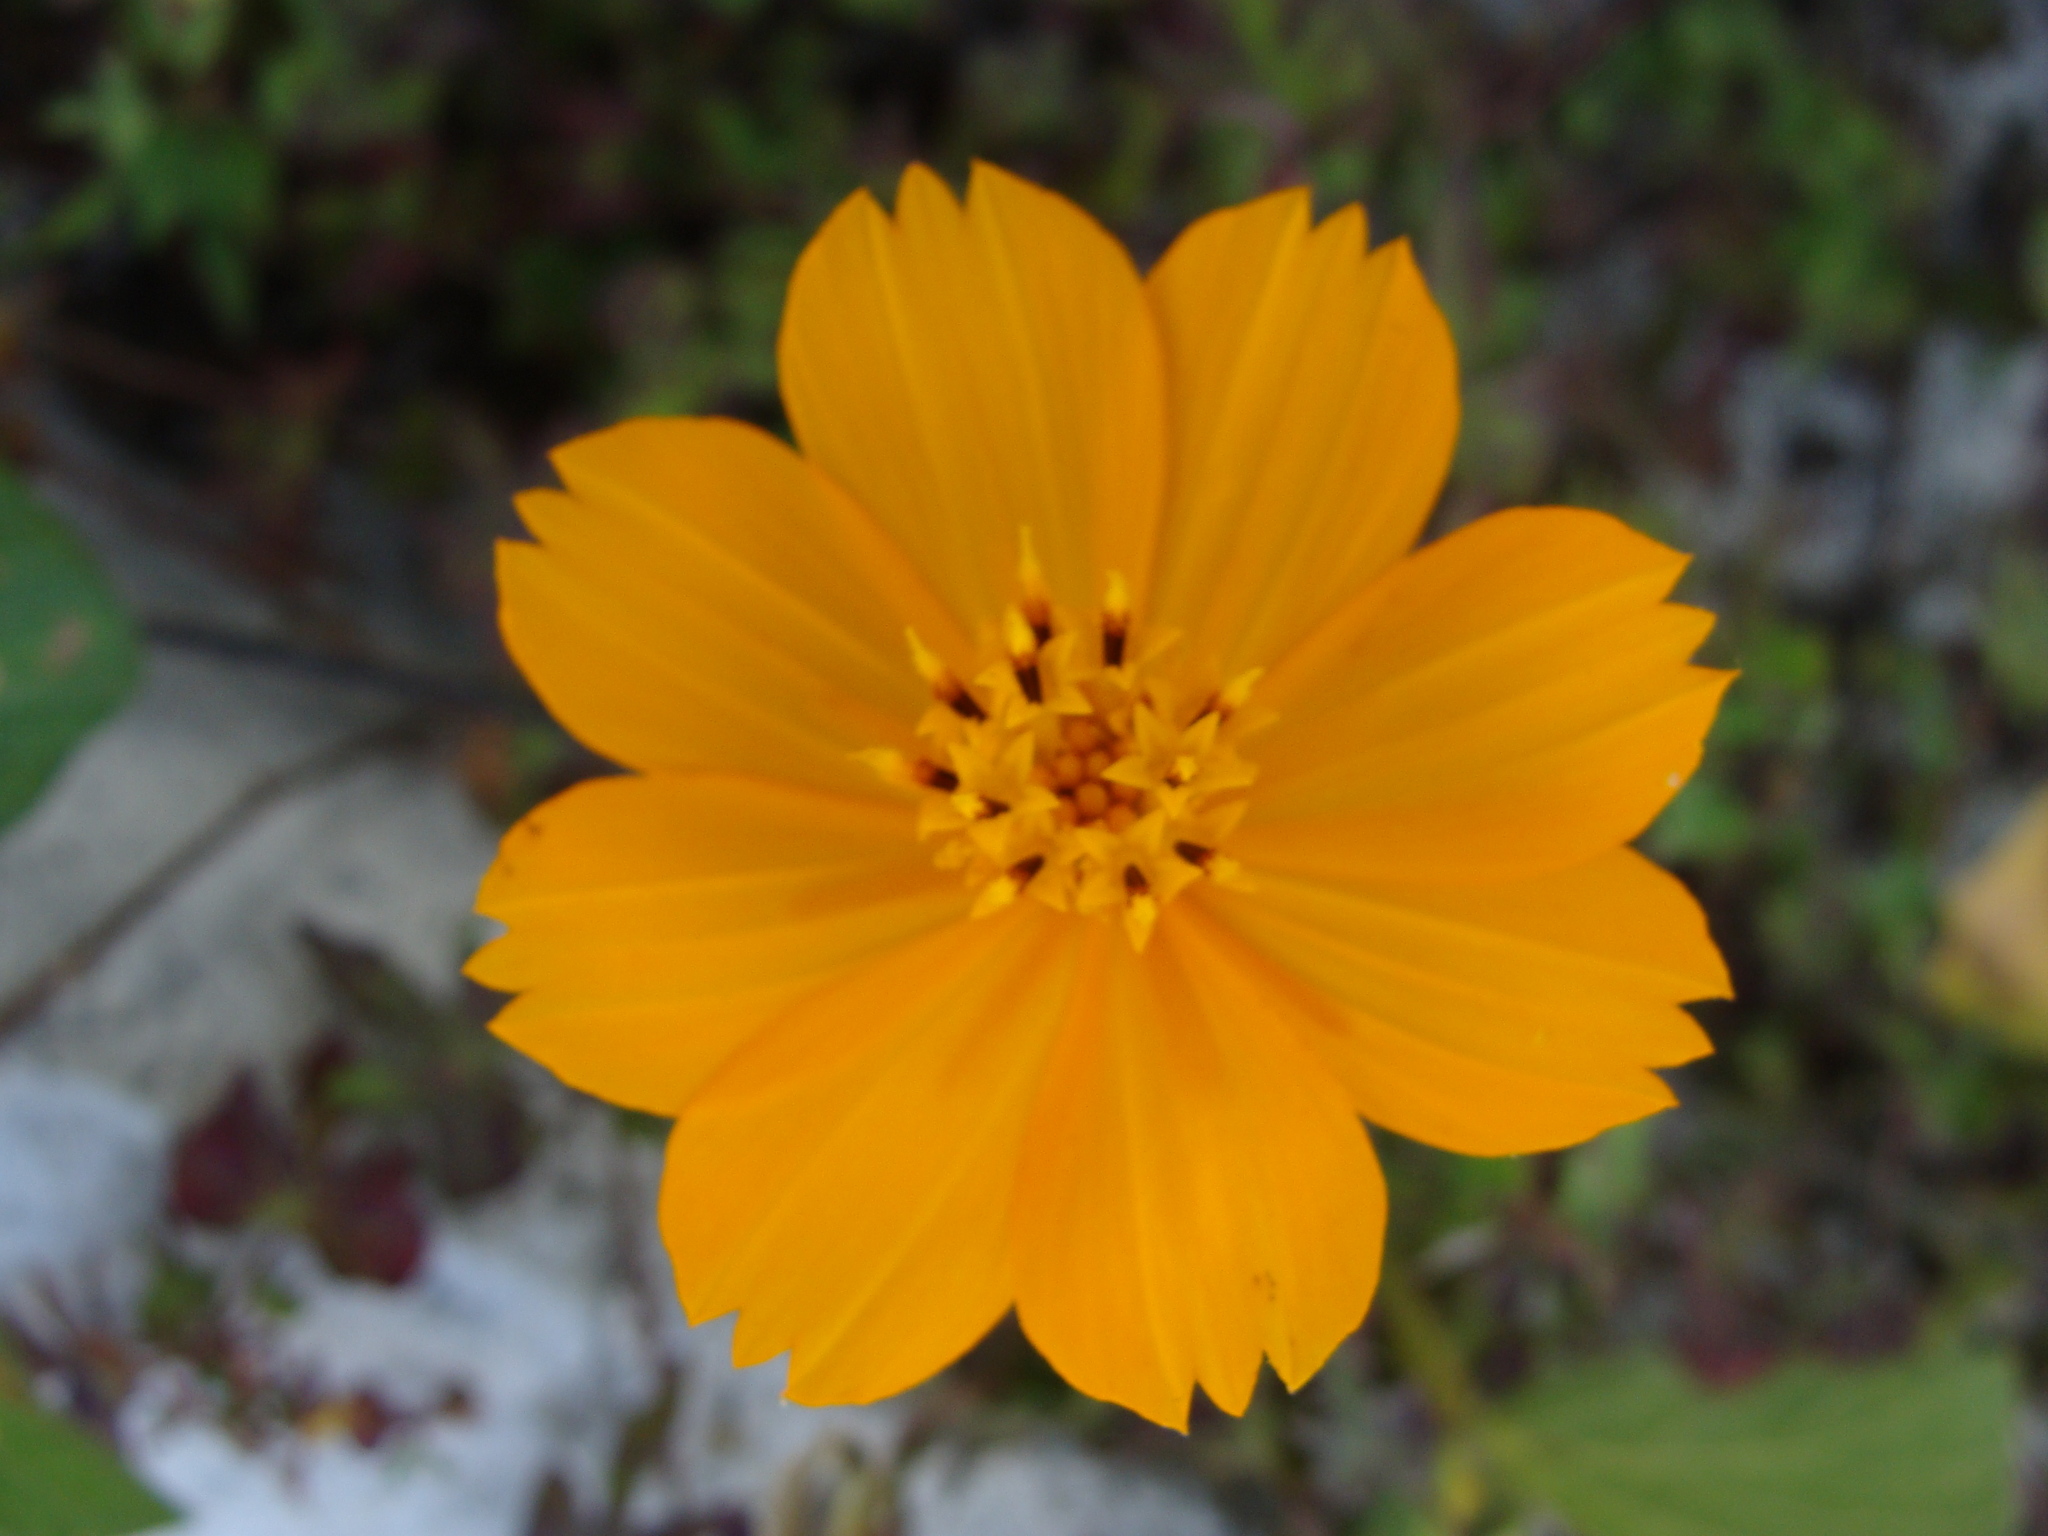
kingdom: Plantae
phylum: Tracheophyta
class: Magnoliopsida
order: Asterales
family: Asteraceae
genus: Cosmos
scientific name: Cosmos sulphureus
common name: Sulphur cosmos
